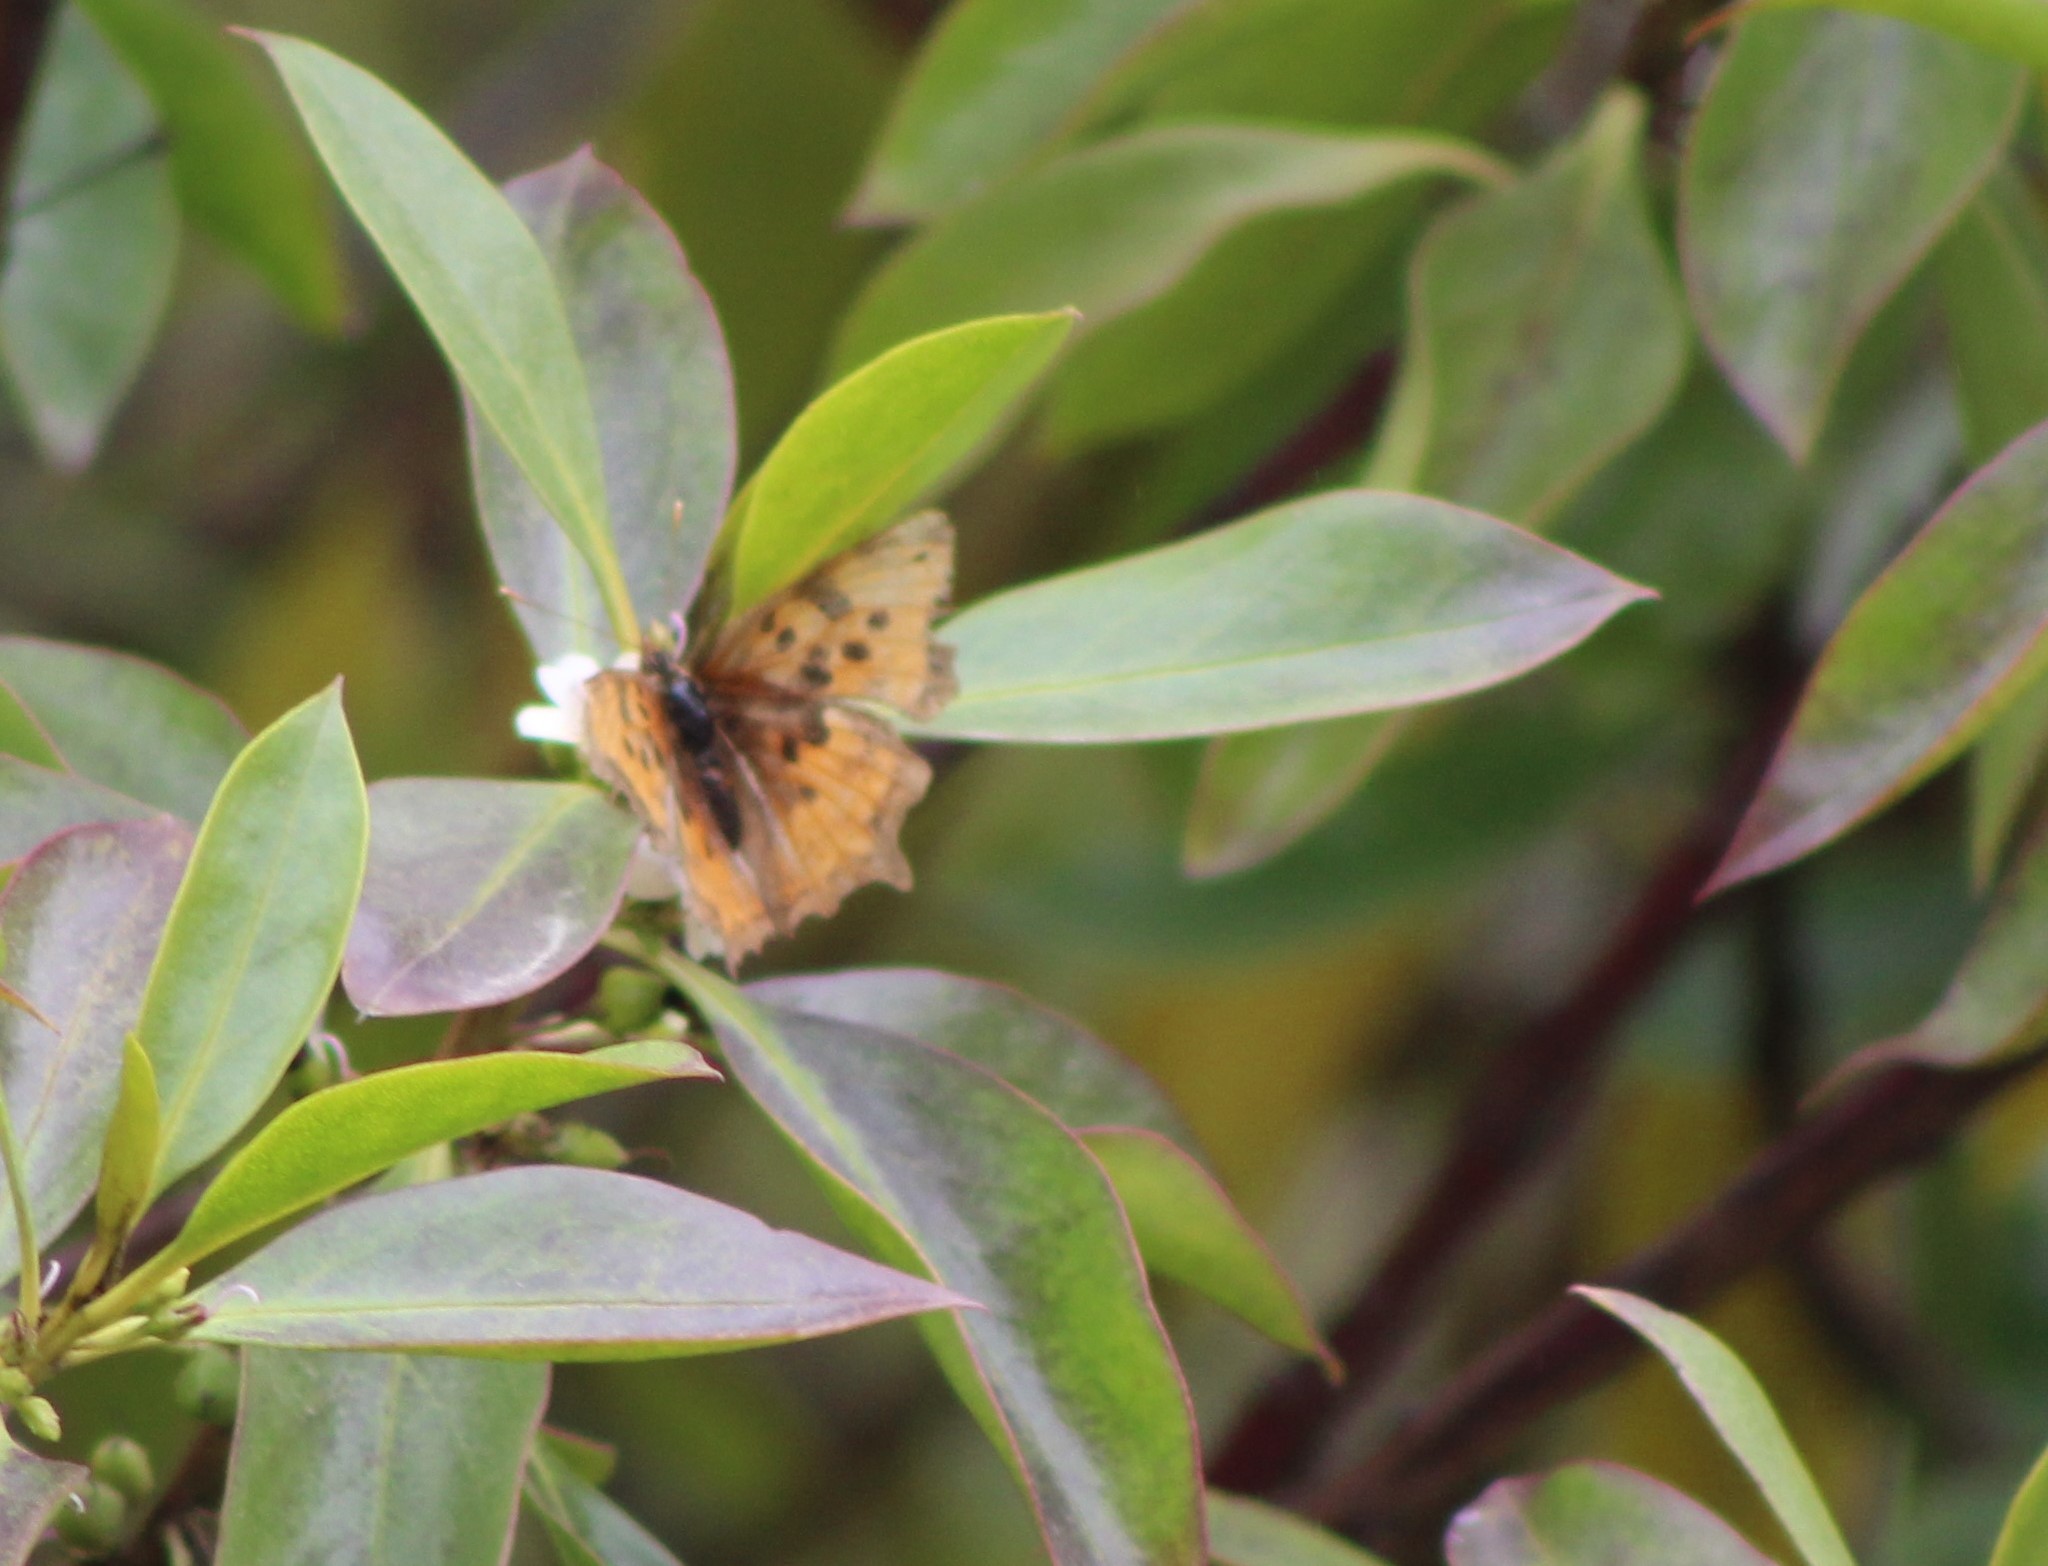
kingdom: Animalia
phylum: Arthropoda
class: Insecta
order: Lepidoptera
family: Nymphalidae
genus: Polygonia
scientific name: Polygonia satyrus
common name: Satyr angle wing
